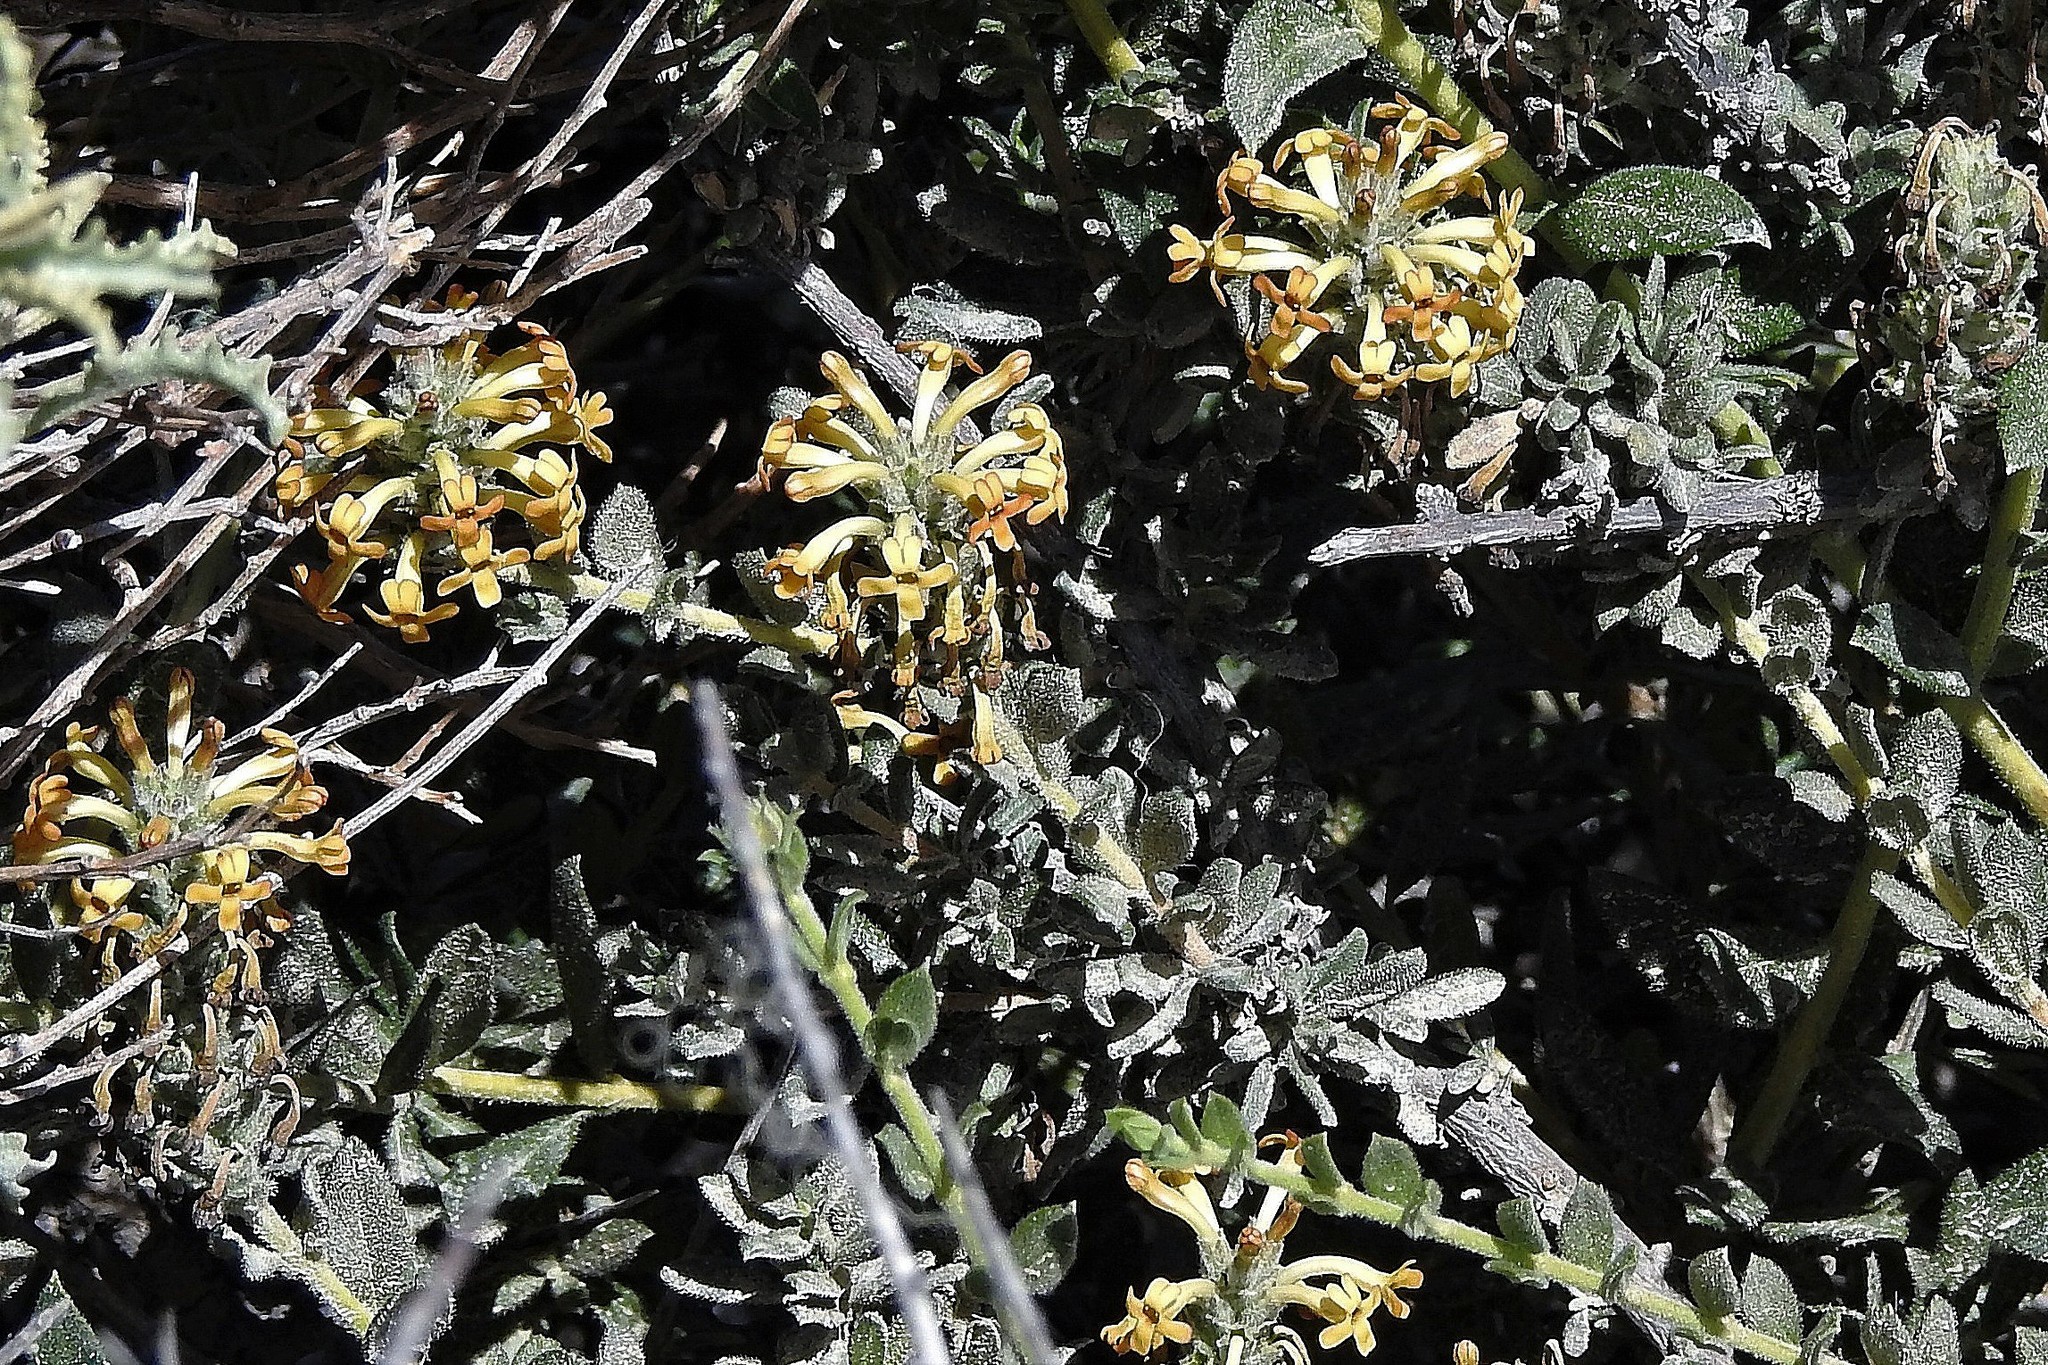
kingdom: Plantae
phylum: Tracheophyta
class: Magnoliopsida
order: Lamiales
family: Verbenaceae
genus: Mulguraea
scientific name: Mulguraea ligustrina
